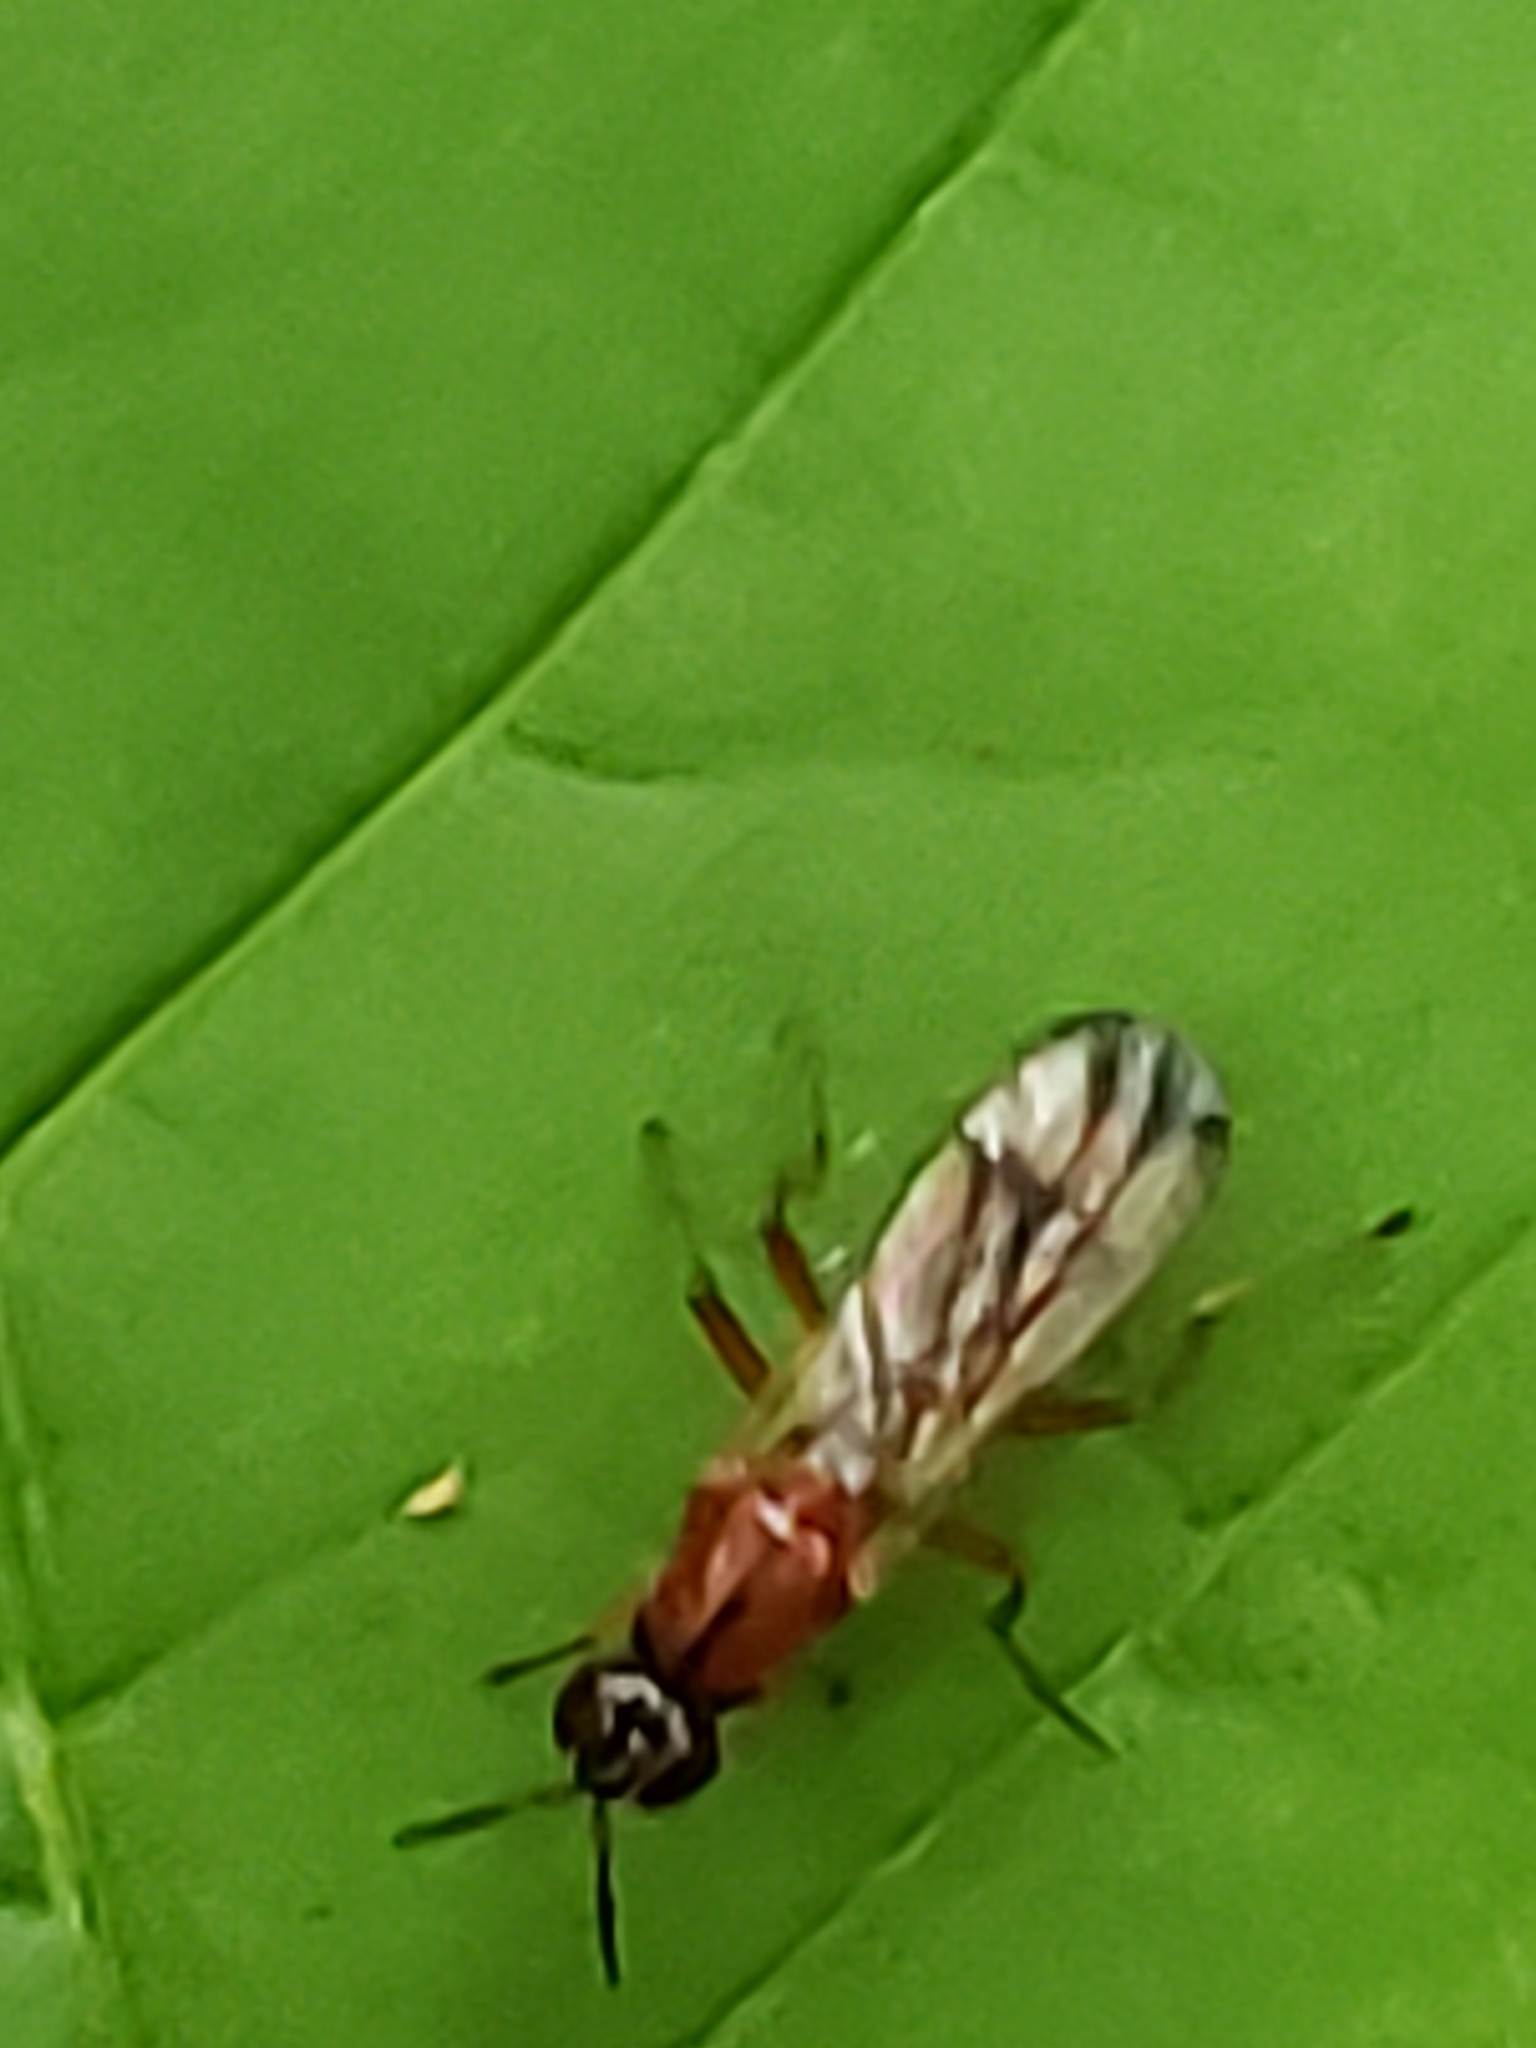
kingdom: Animalia
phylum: Arthropoda
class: Insecta
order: Diptera
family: Psilidae
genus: Loxocera
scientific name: Loxocera cylindrica
